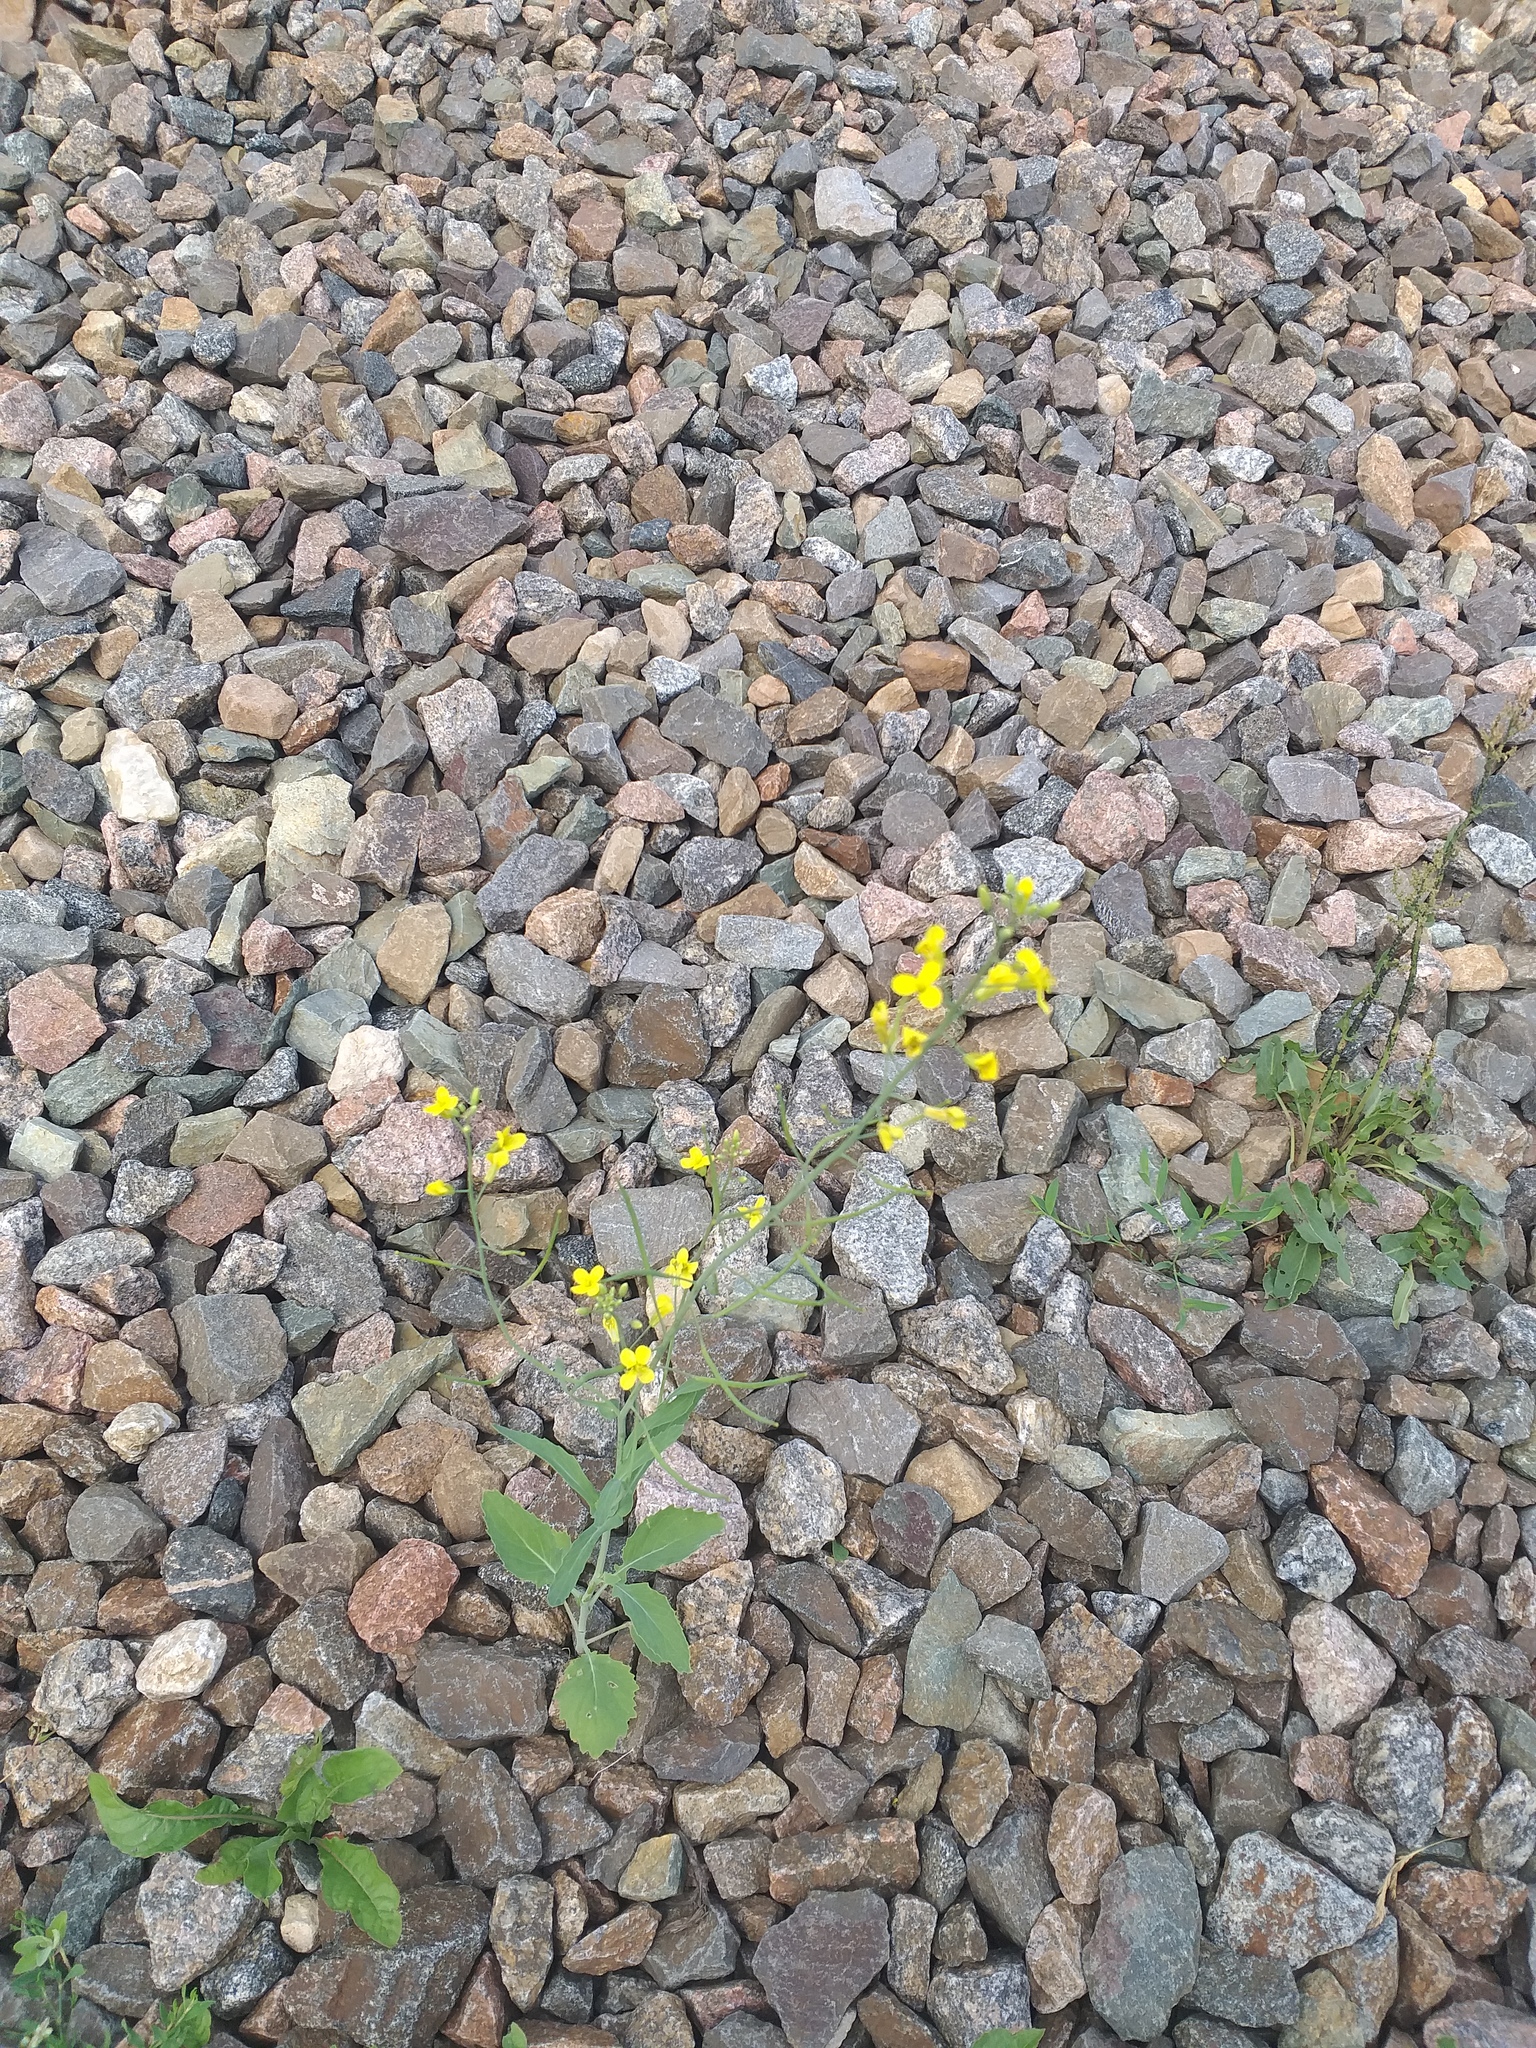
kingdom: Plantae
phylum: Tracheophyta
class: Magnoliopsida
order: Brassicales
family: Brassicaceae
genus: Brassica
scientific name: Brassica napus
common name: Rape
